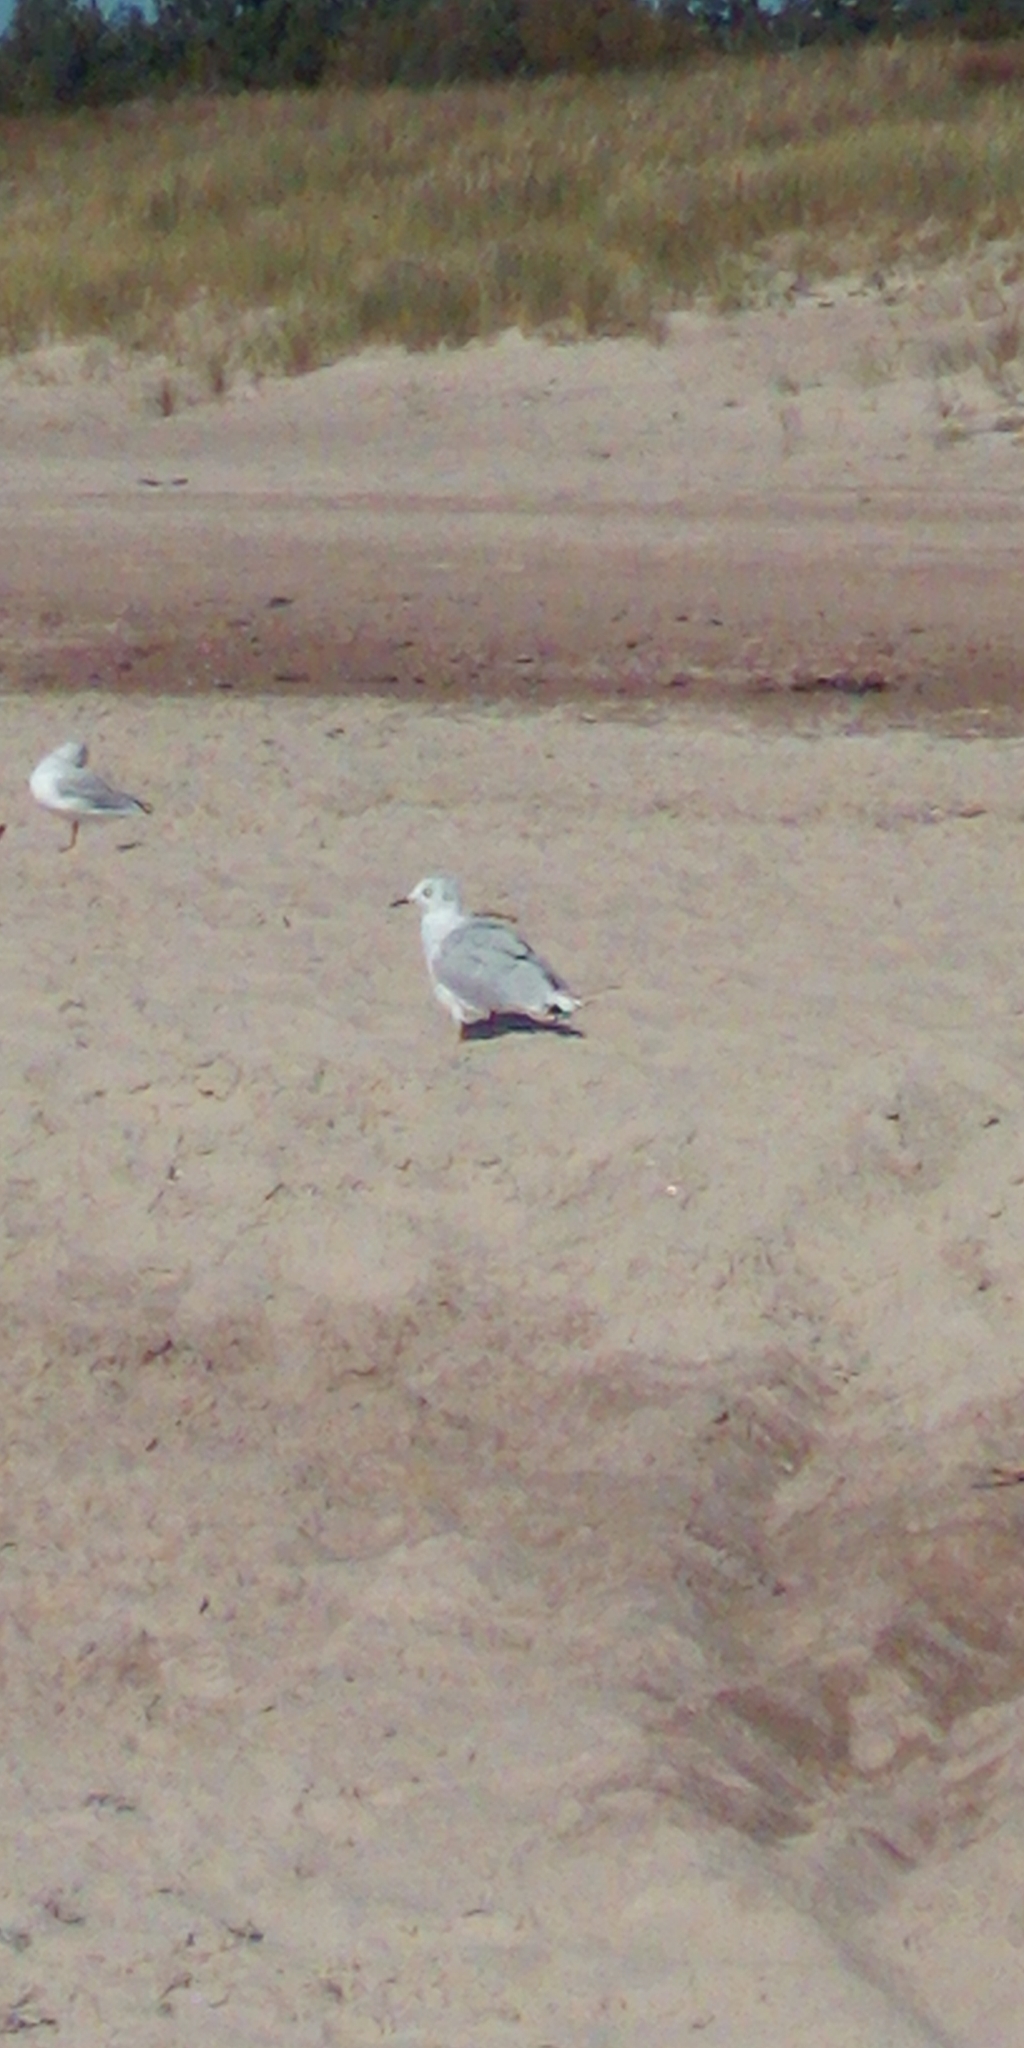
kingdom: Animalia
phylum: Chordata
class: Aves
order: Charadriiformes
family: Laridae
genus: Chroicocephalus
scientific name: Chroicocephalus ridibundus
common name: Black-headed gull
